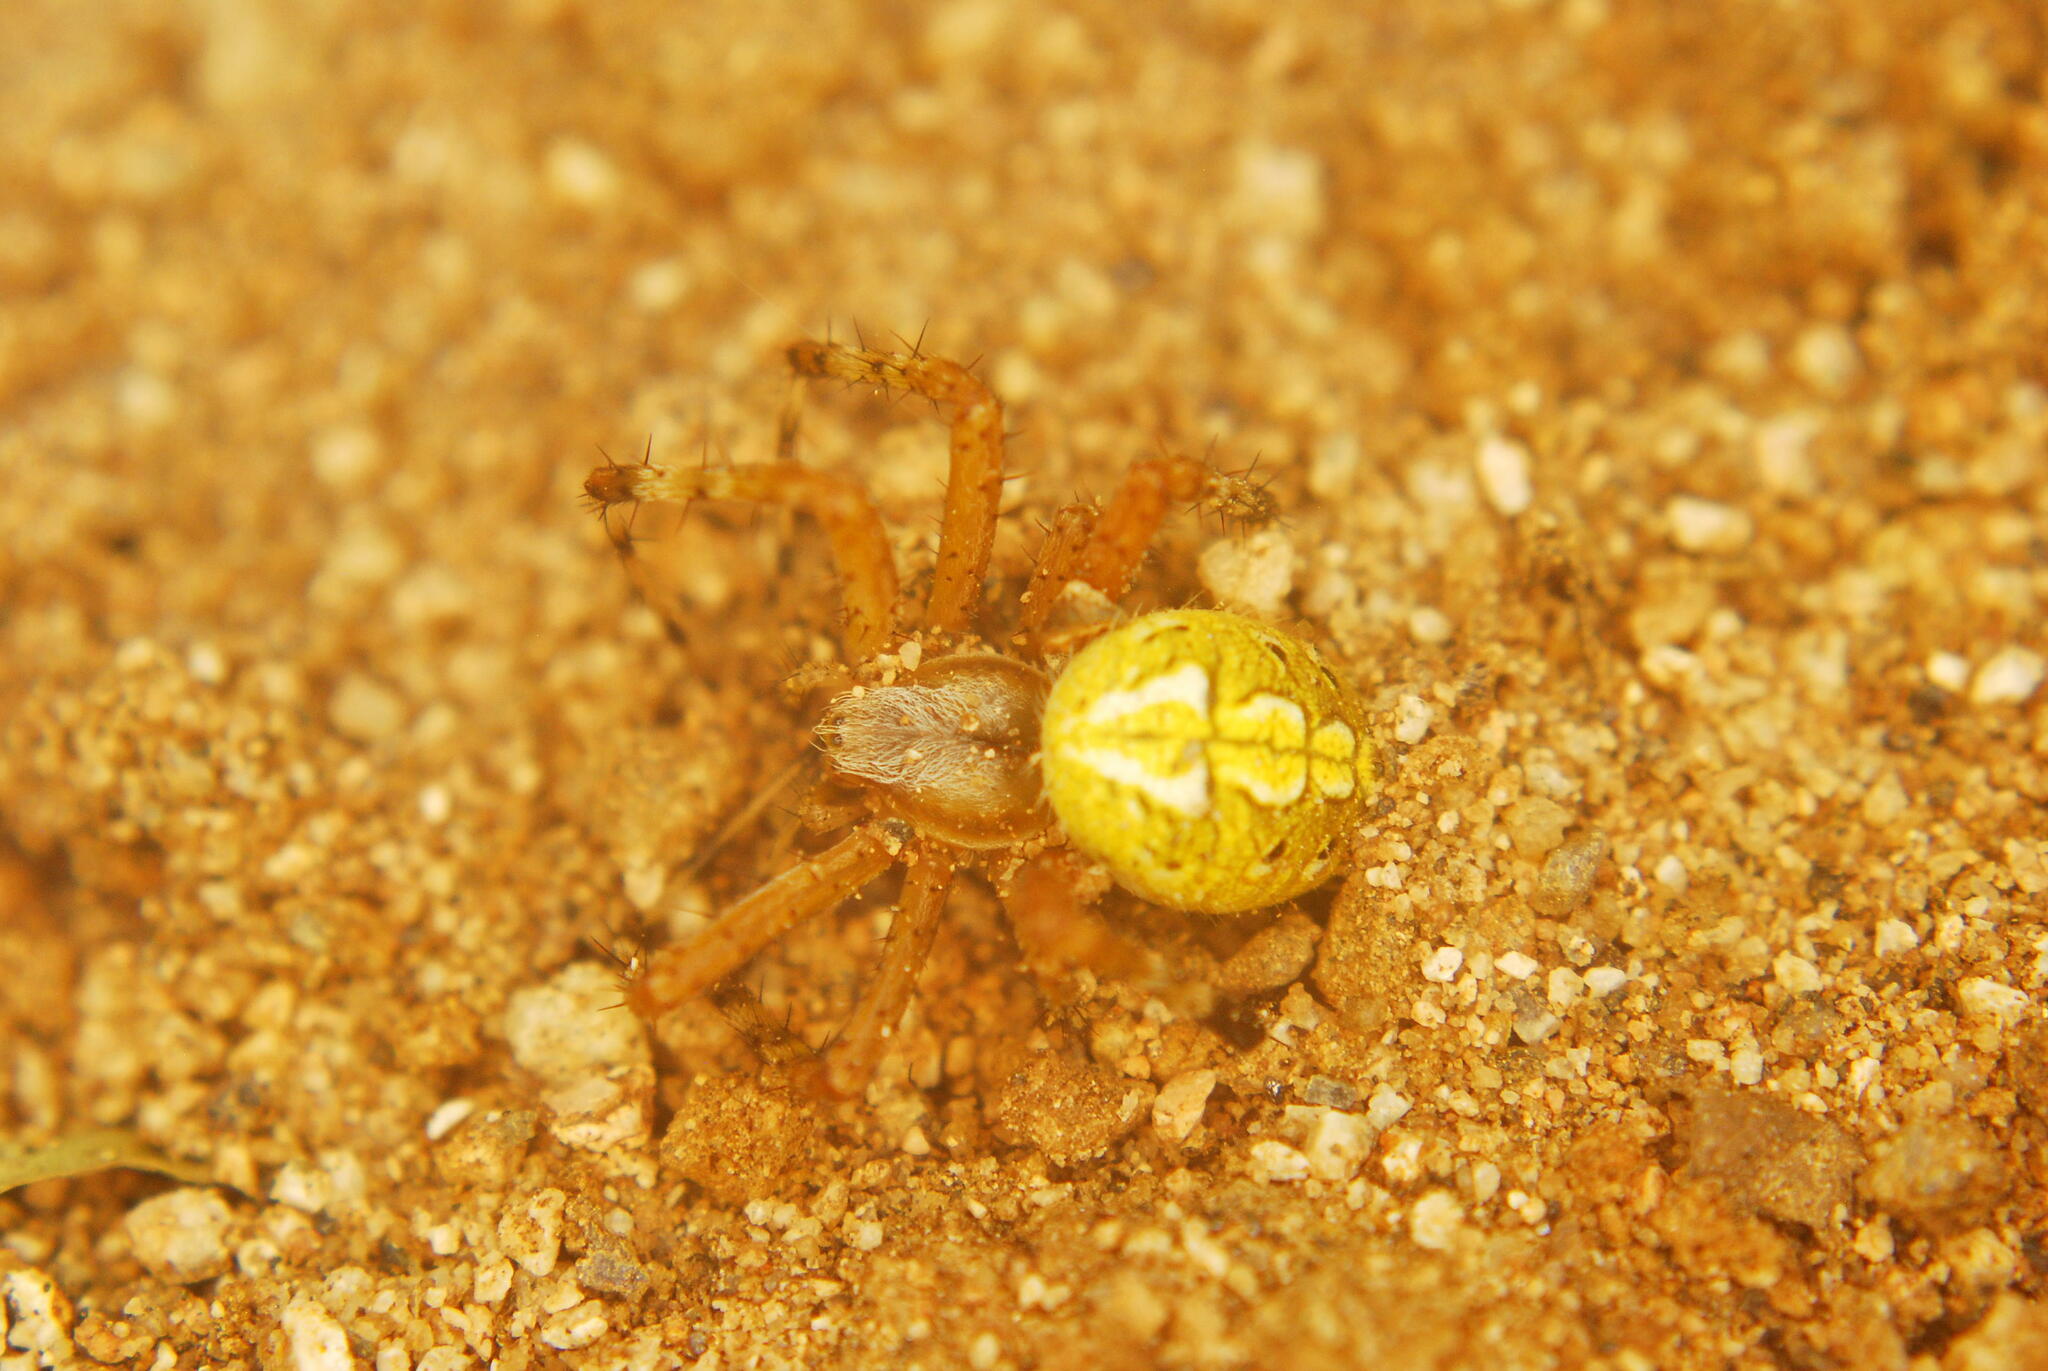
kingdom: Animalia
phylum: Arthropoda
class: Arachnida
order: Araneae
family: Araneidae
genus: Neoscona
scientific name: Neoscona oaxacensis
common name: Orb weavers
